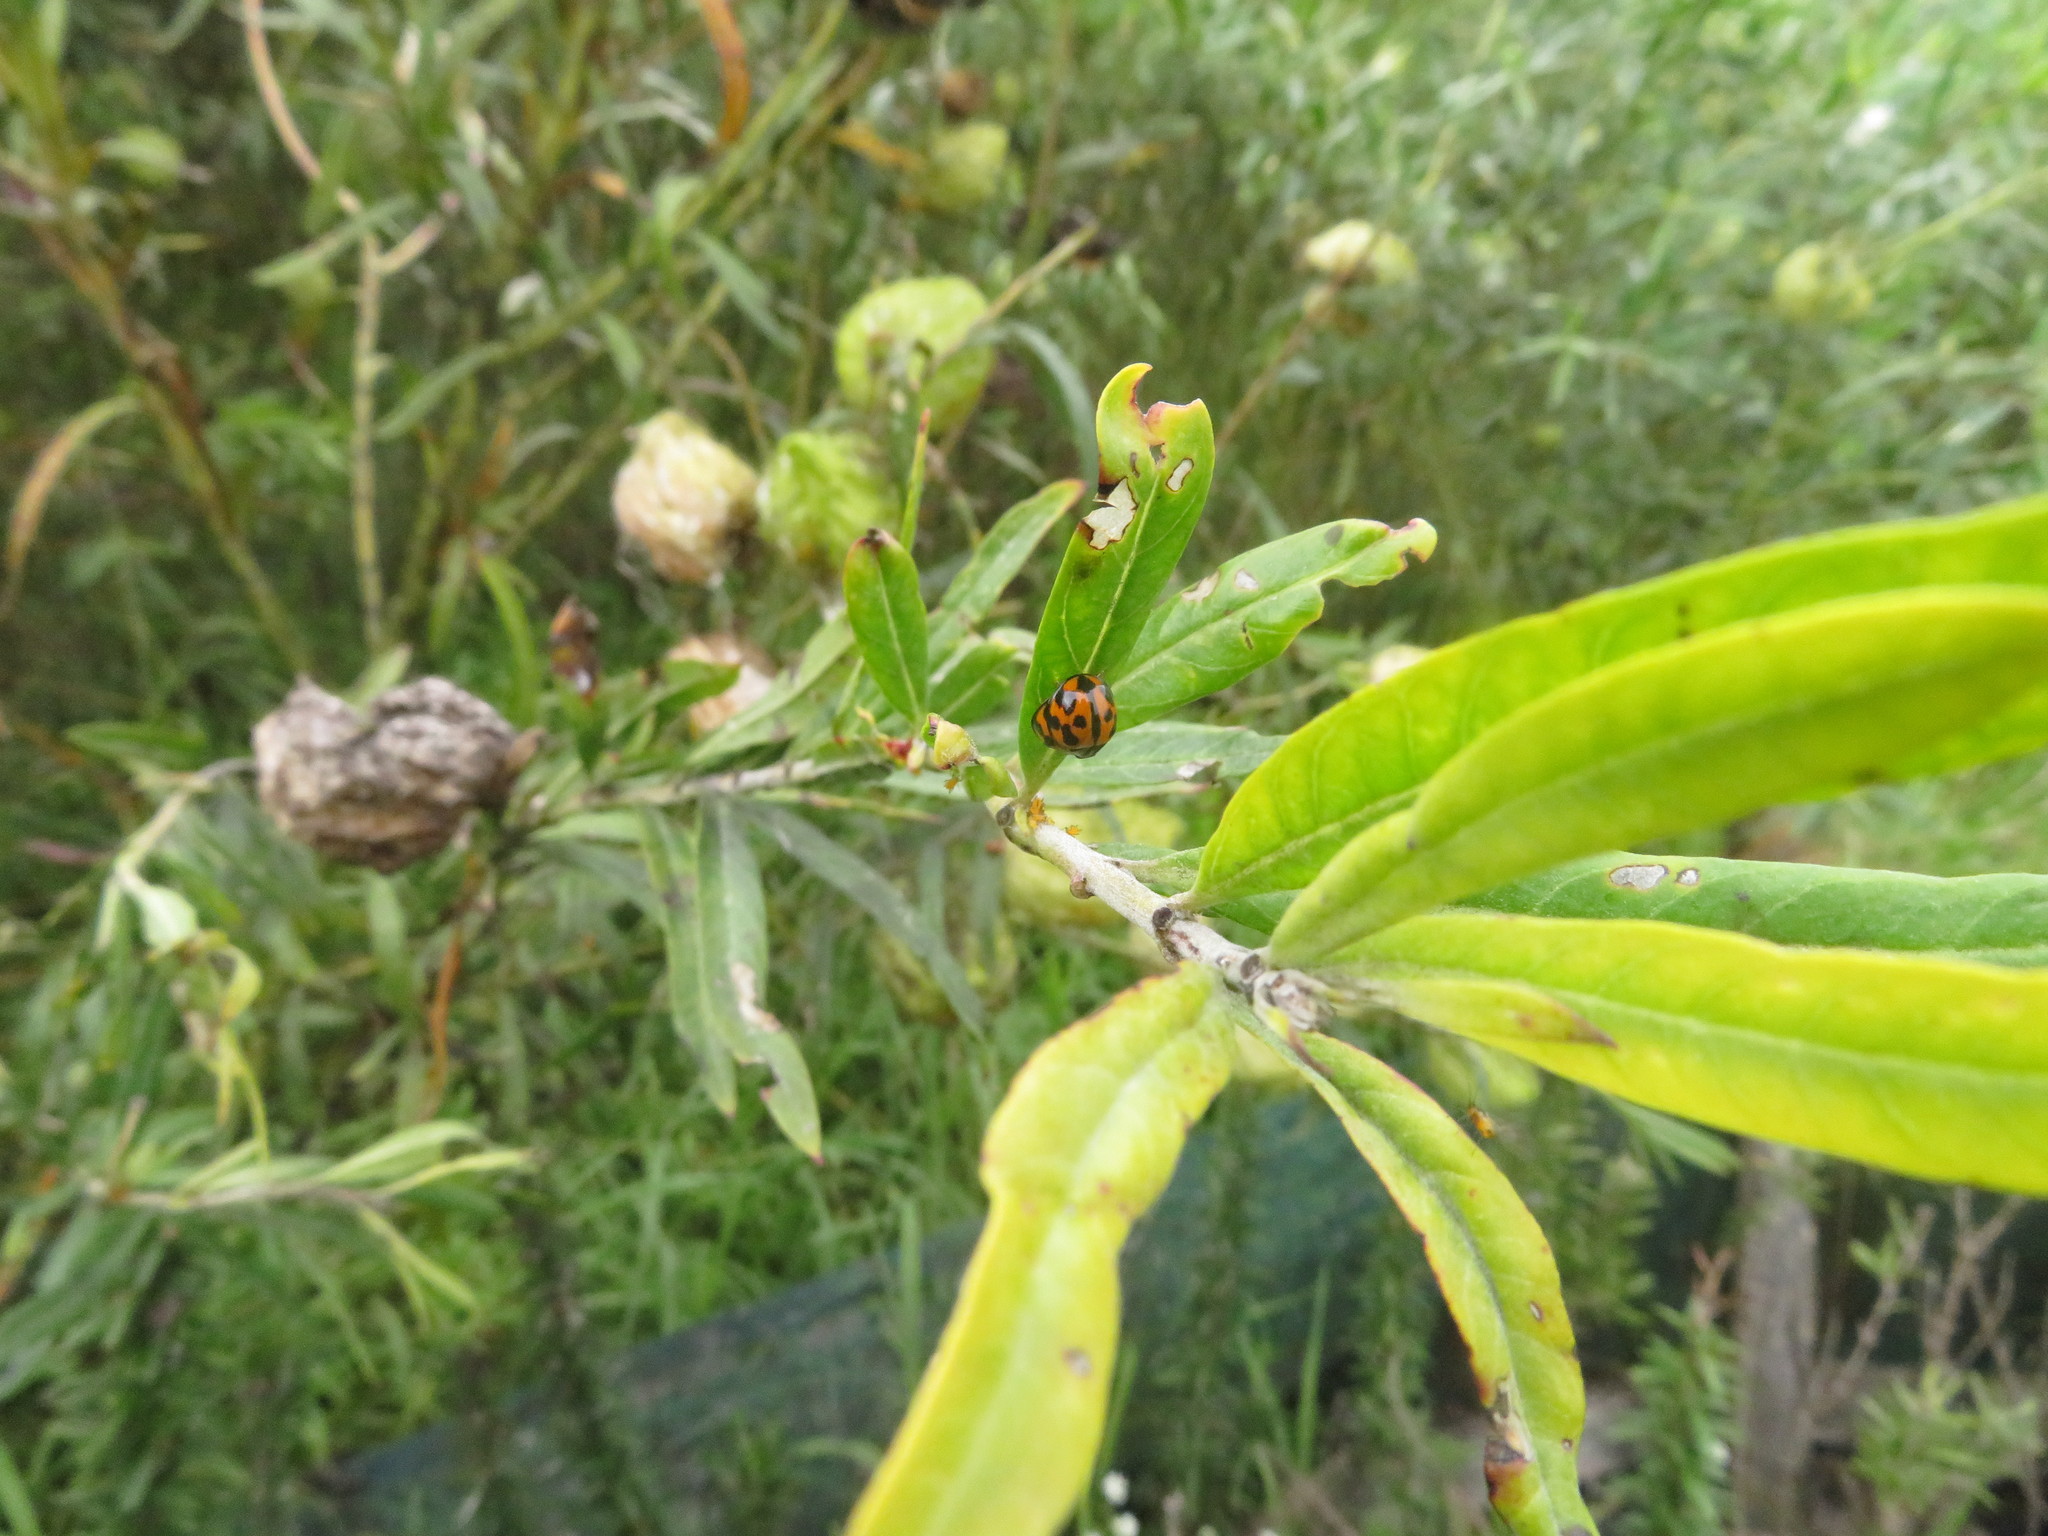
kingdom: Animalia
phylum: Arthropoda
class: Insecta
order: Coleoptera
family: Coccinellidae
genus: Coelophora
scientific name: Coelophora inaequalis
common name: Common australian lady beetle
